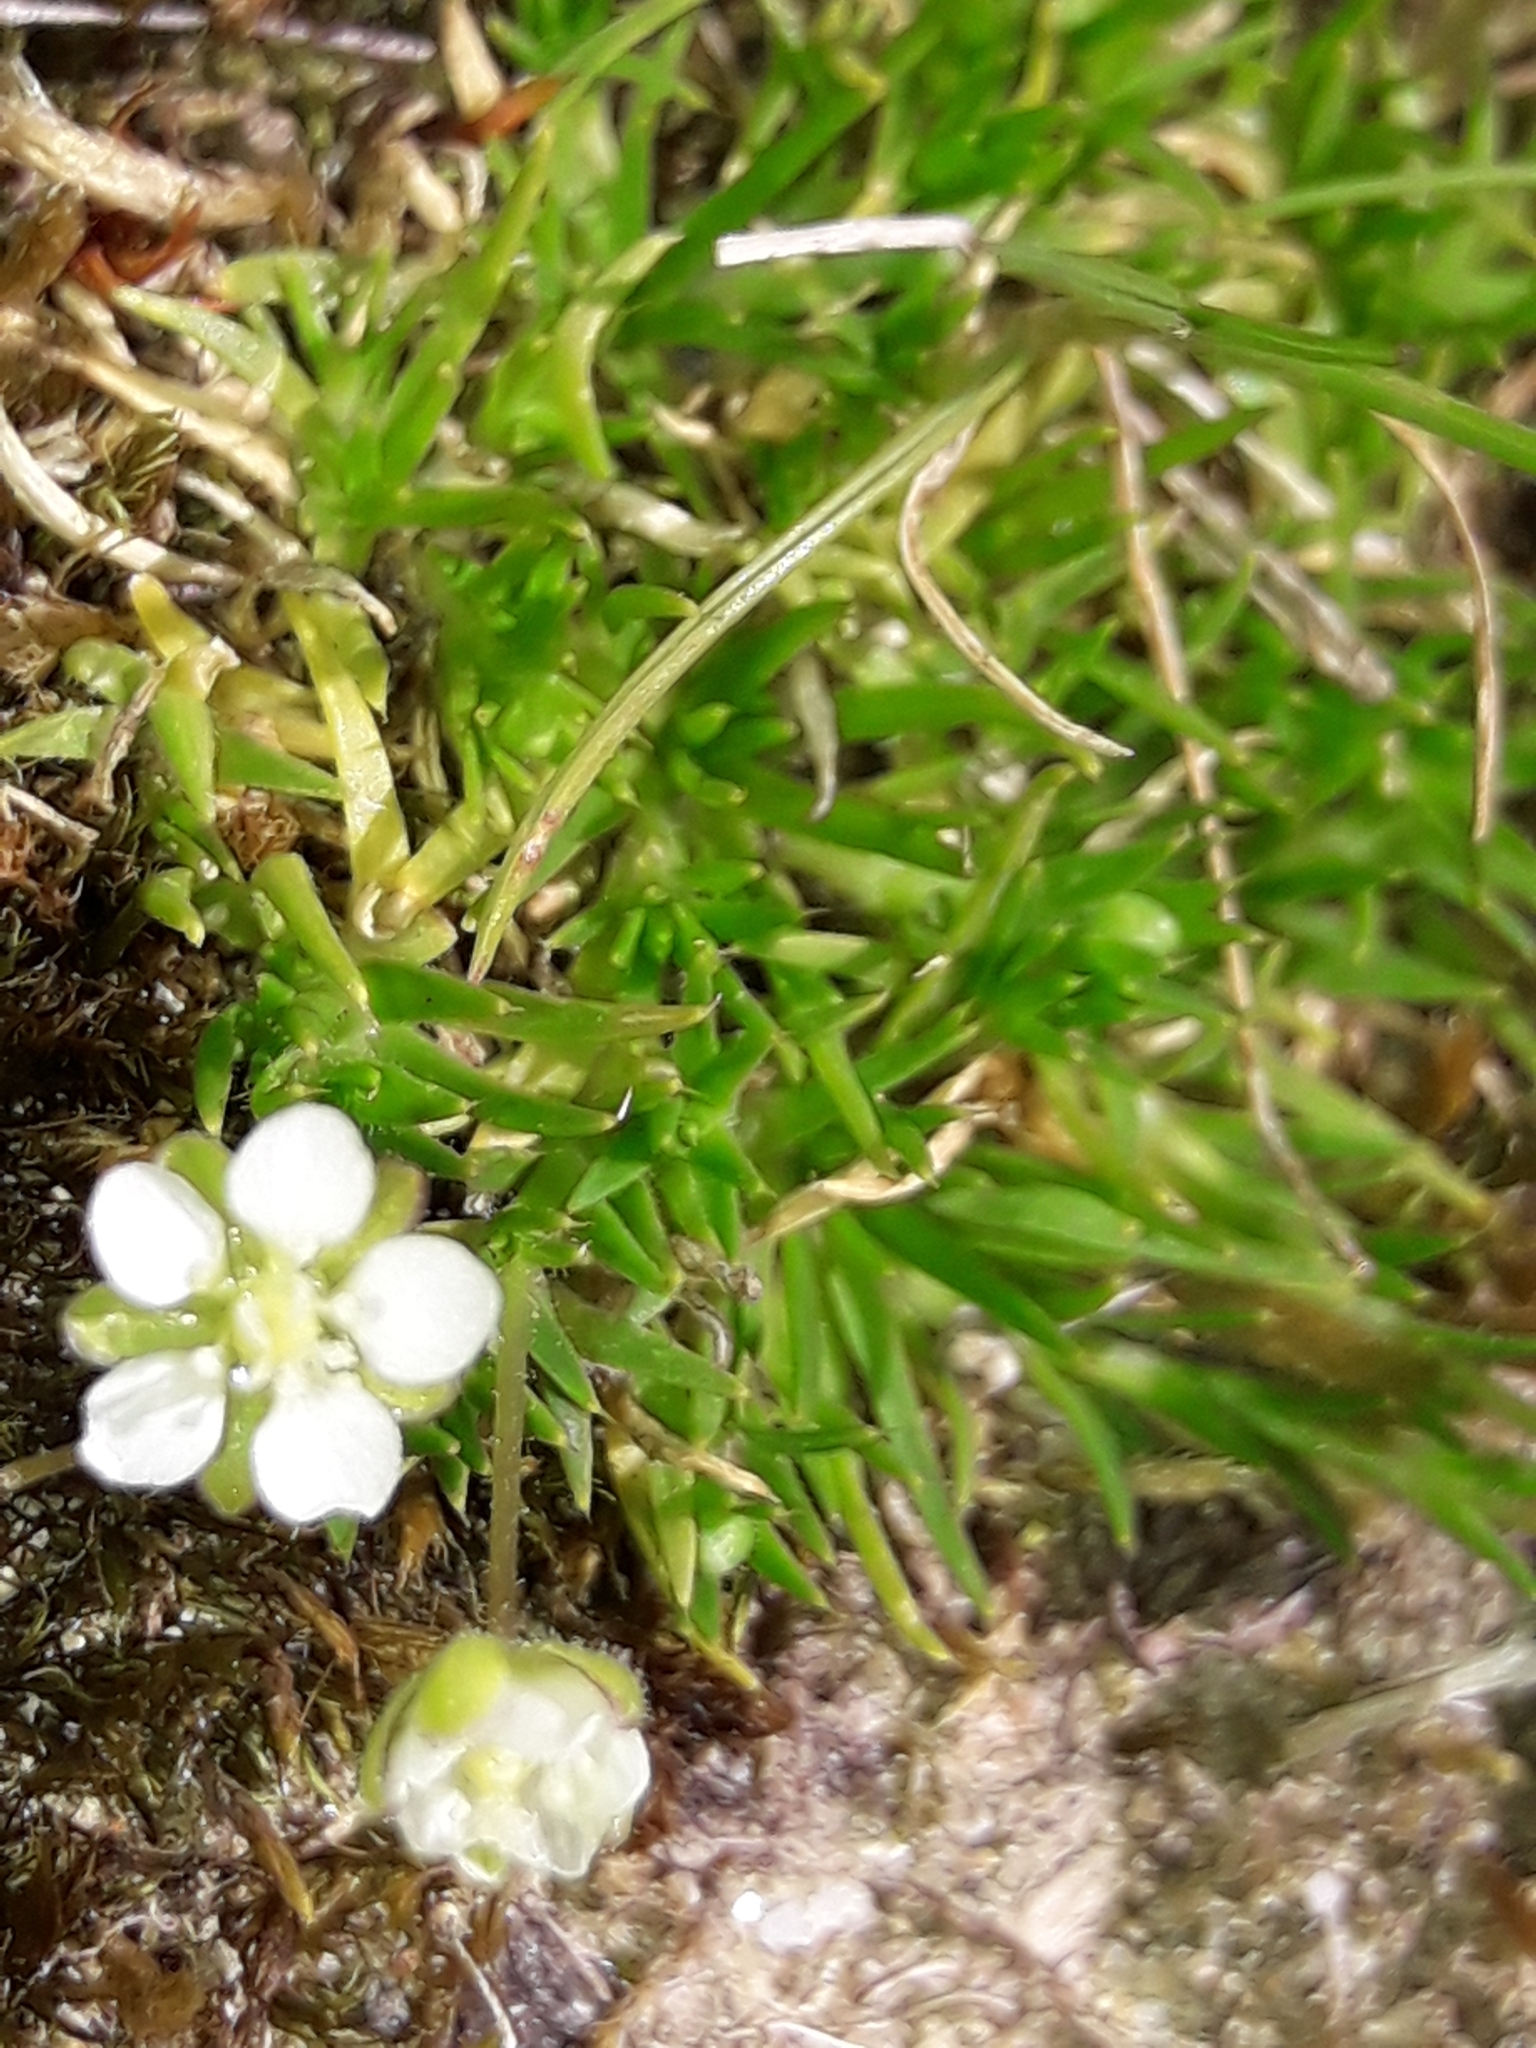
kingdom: Plantae
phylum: Tracheophyta
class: Magnoliopsida
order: Caryophyllales
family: Caryophyllaceae
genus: Sagina
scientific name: Sagina procumbens
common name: Procumbent pearlwort
